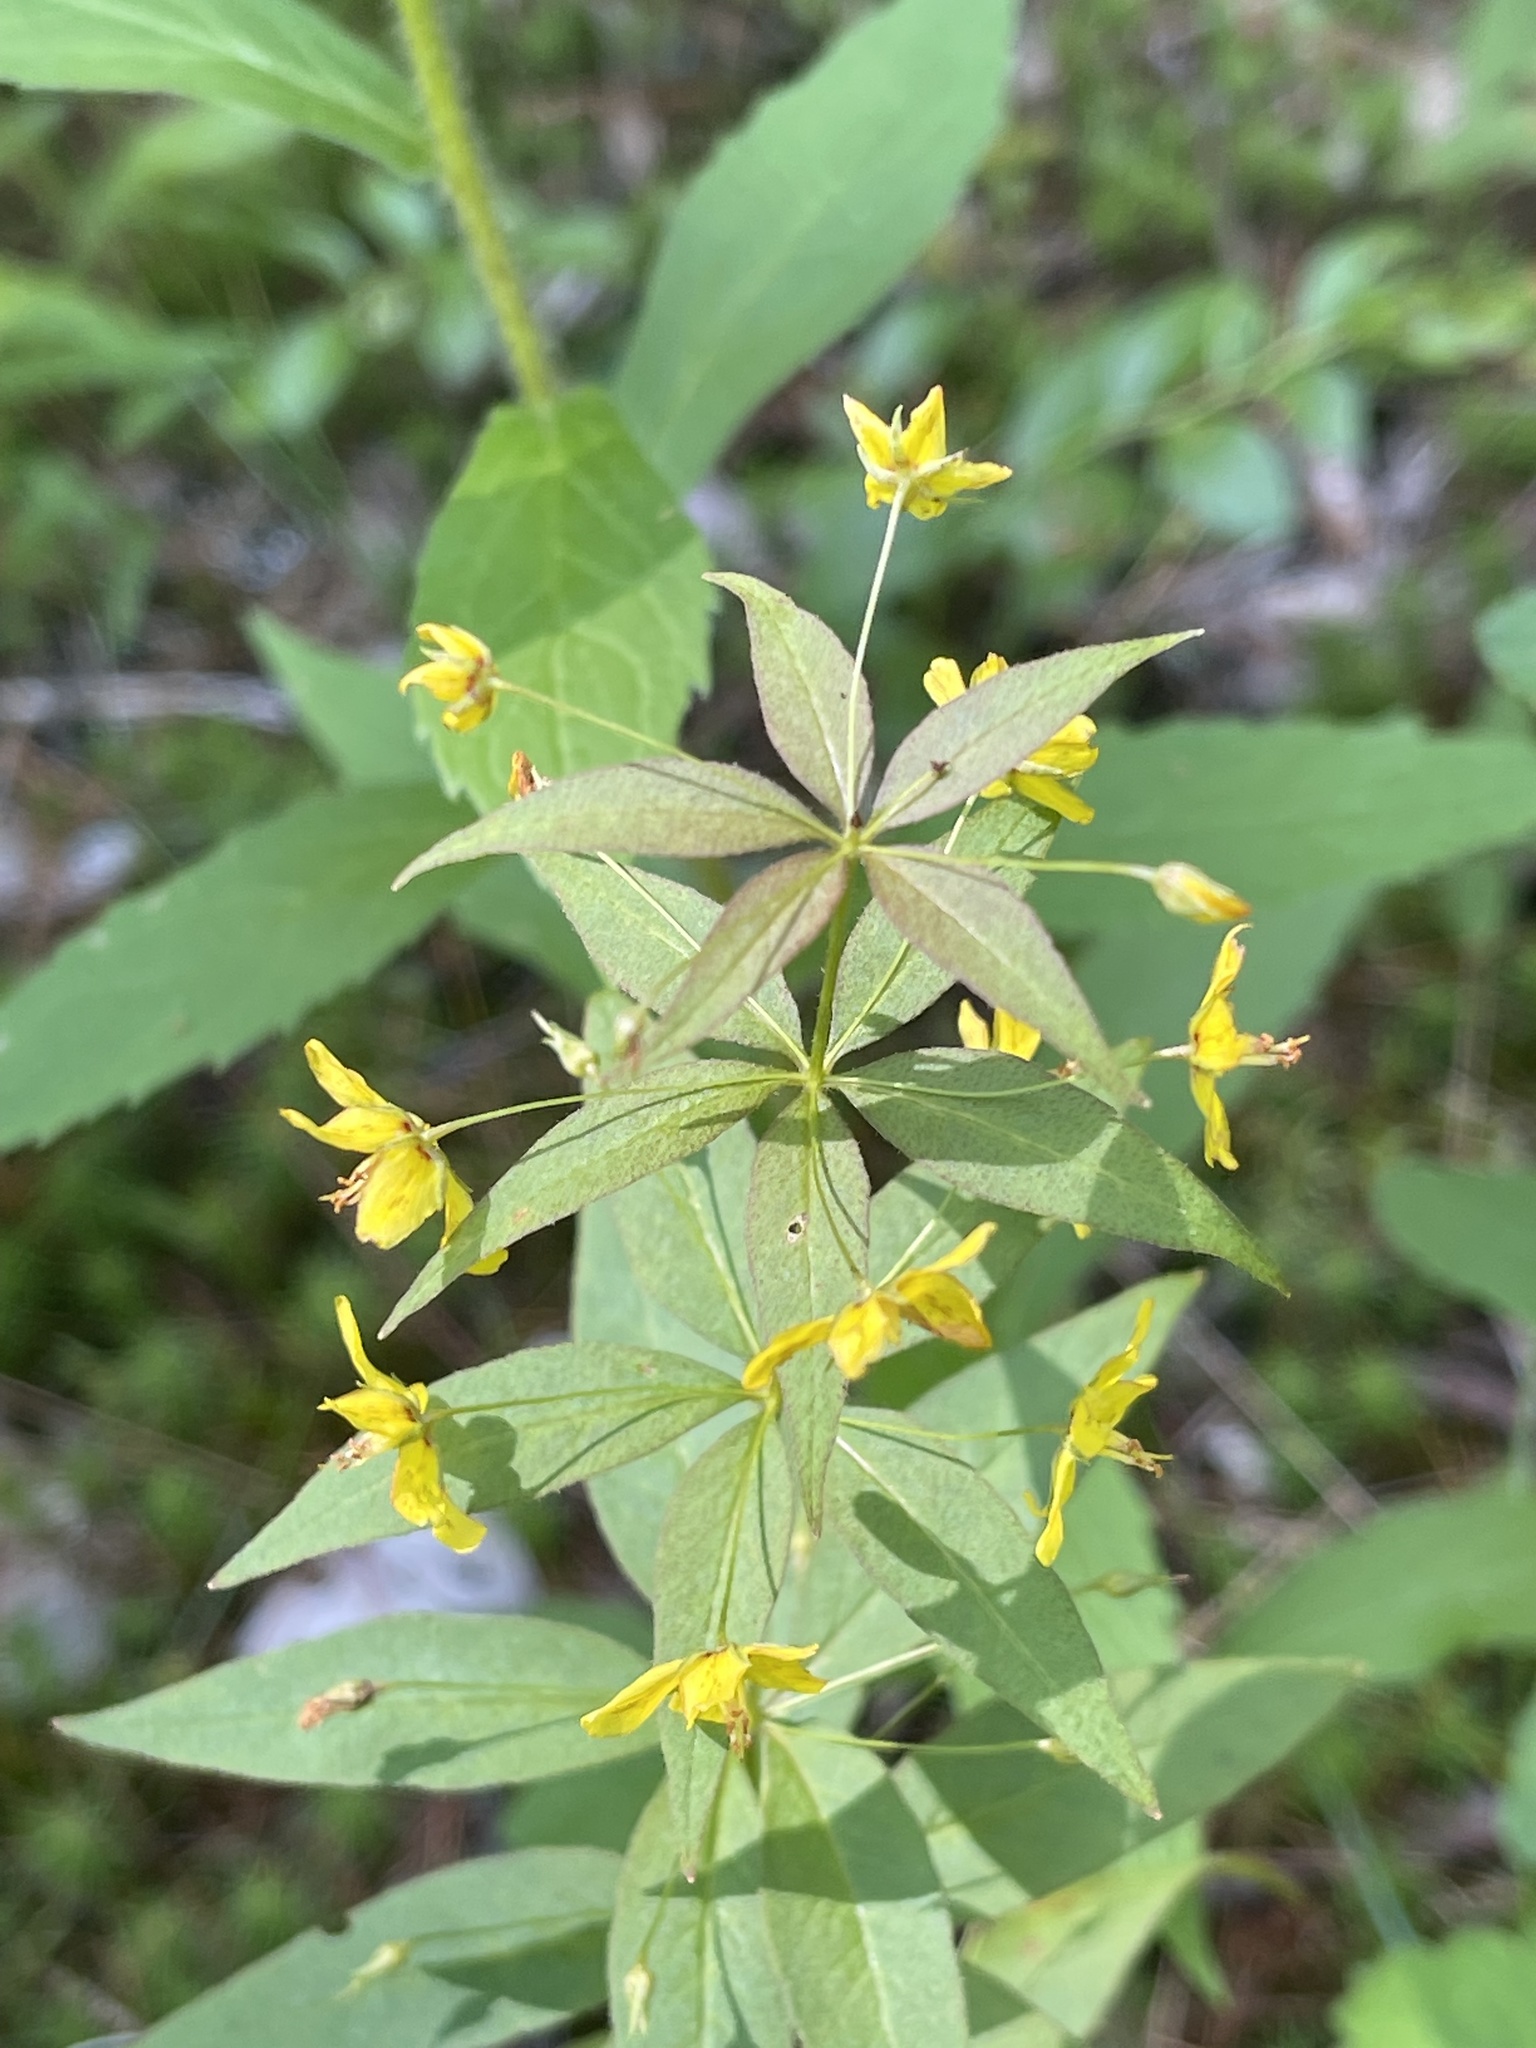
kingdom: Plantae
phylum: Tracheophyta
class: Magnoliopsida
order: Ericales
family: Primulaceae
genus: Lysimachia
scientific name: Lysimachia quadrifolia
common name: Whorled loosestrife
